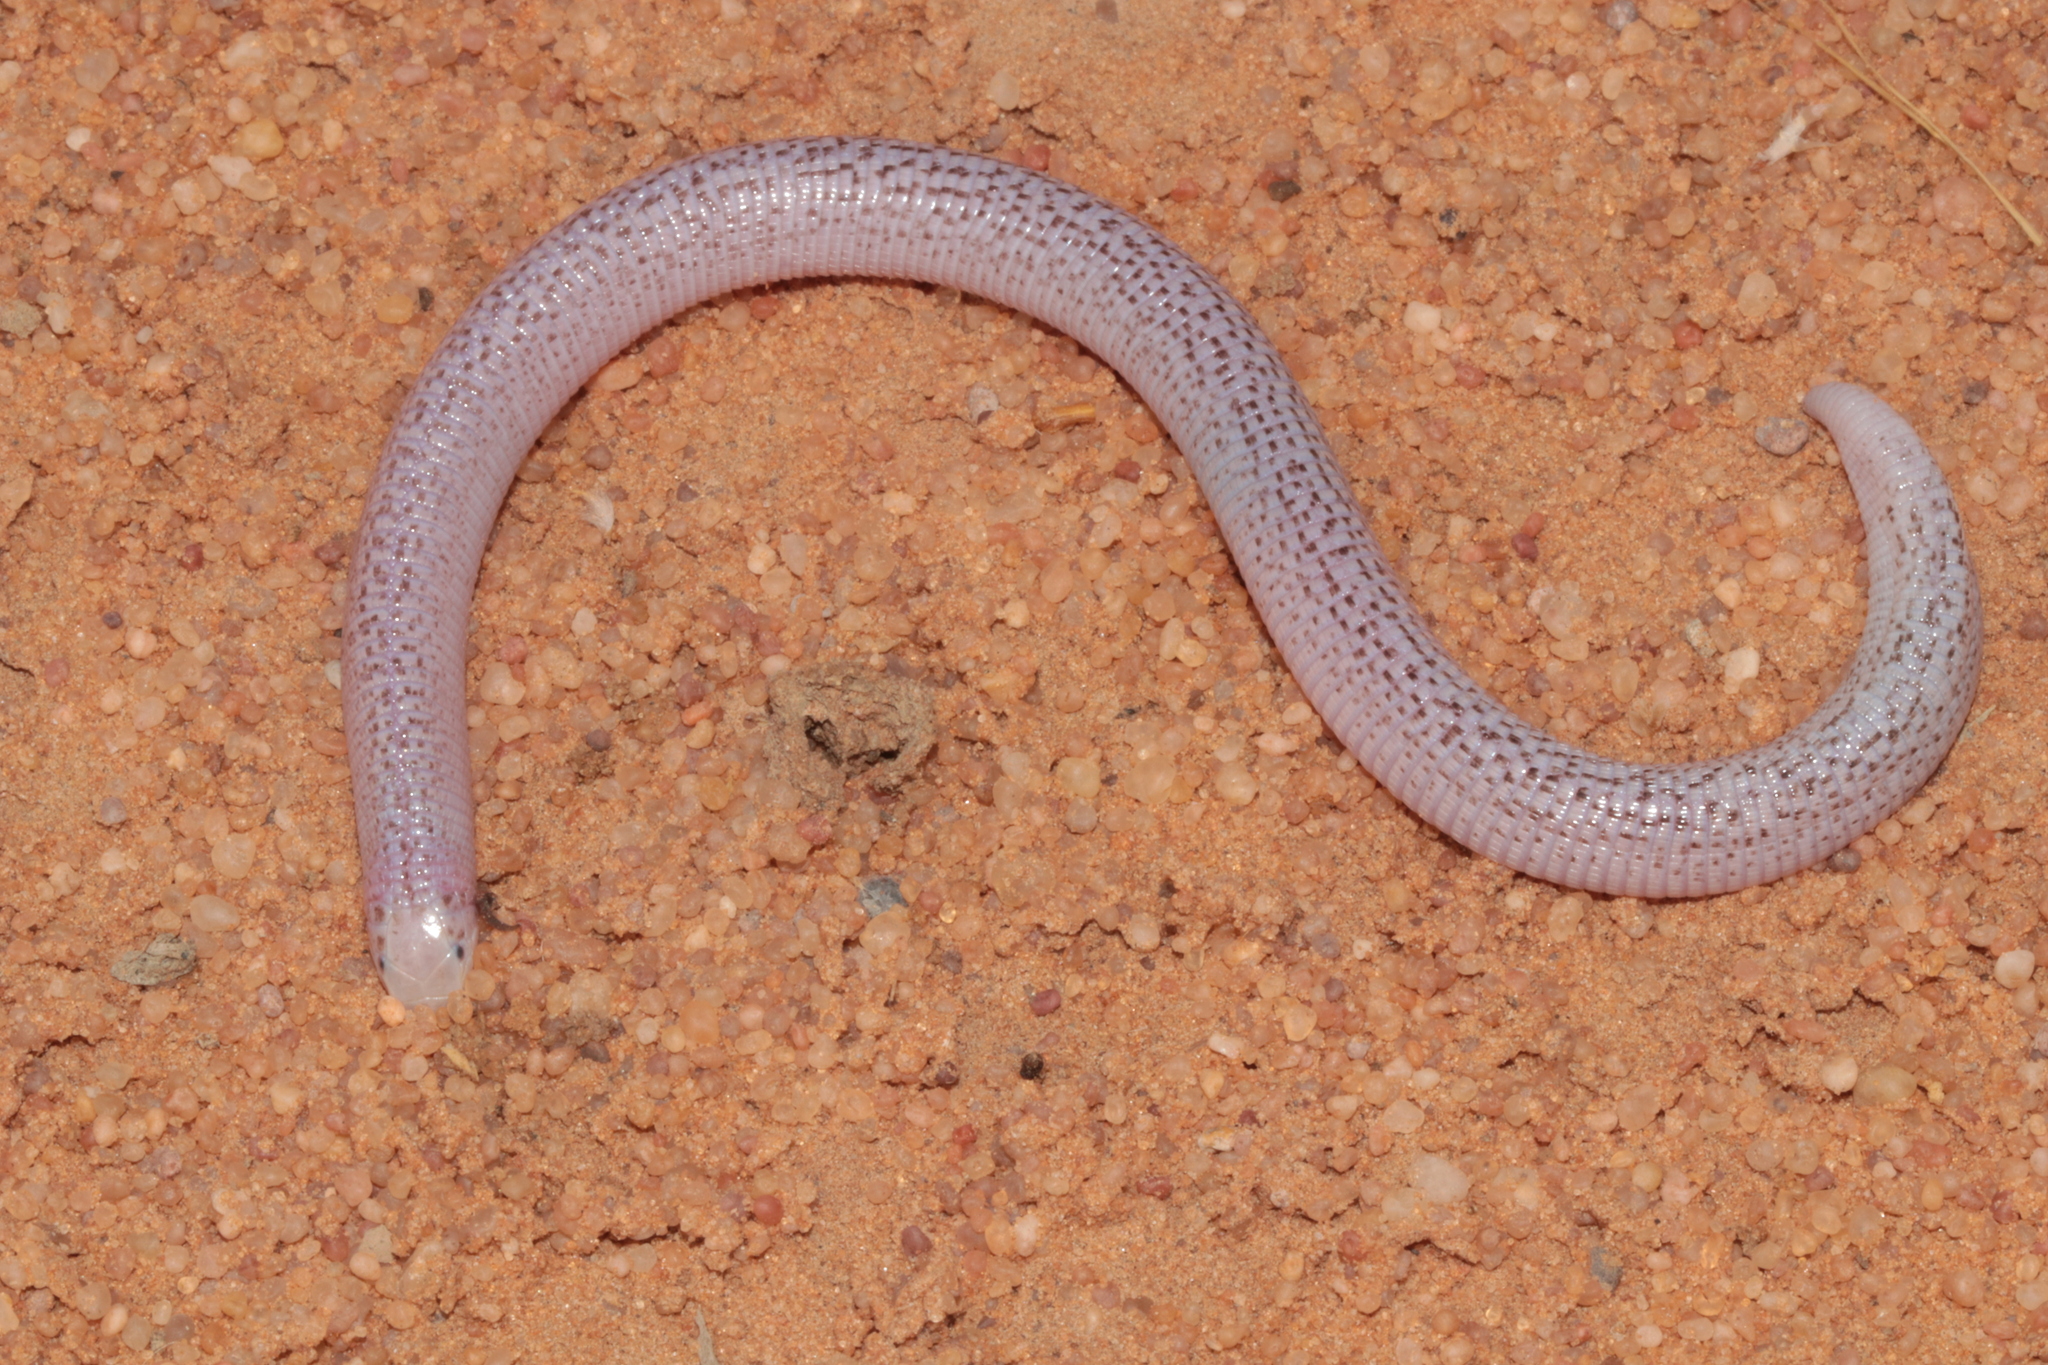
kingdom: Animalia
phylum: Chordata
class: Squamata
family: Trogonophidae
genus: Diplometopon
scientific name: Diplometopon zarudnyi
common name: Zarudnyi's worm lizard
